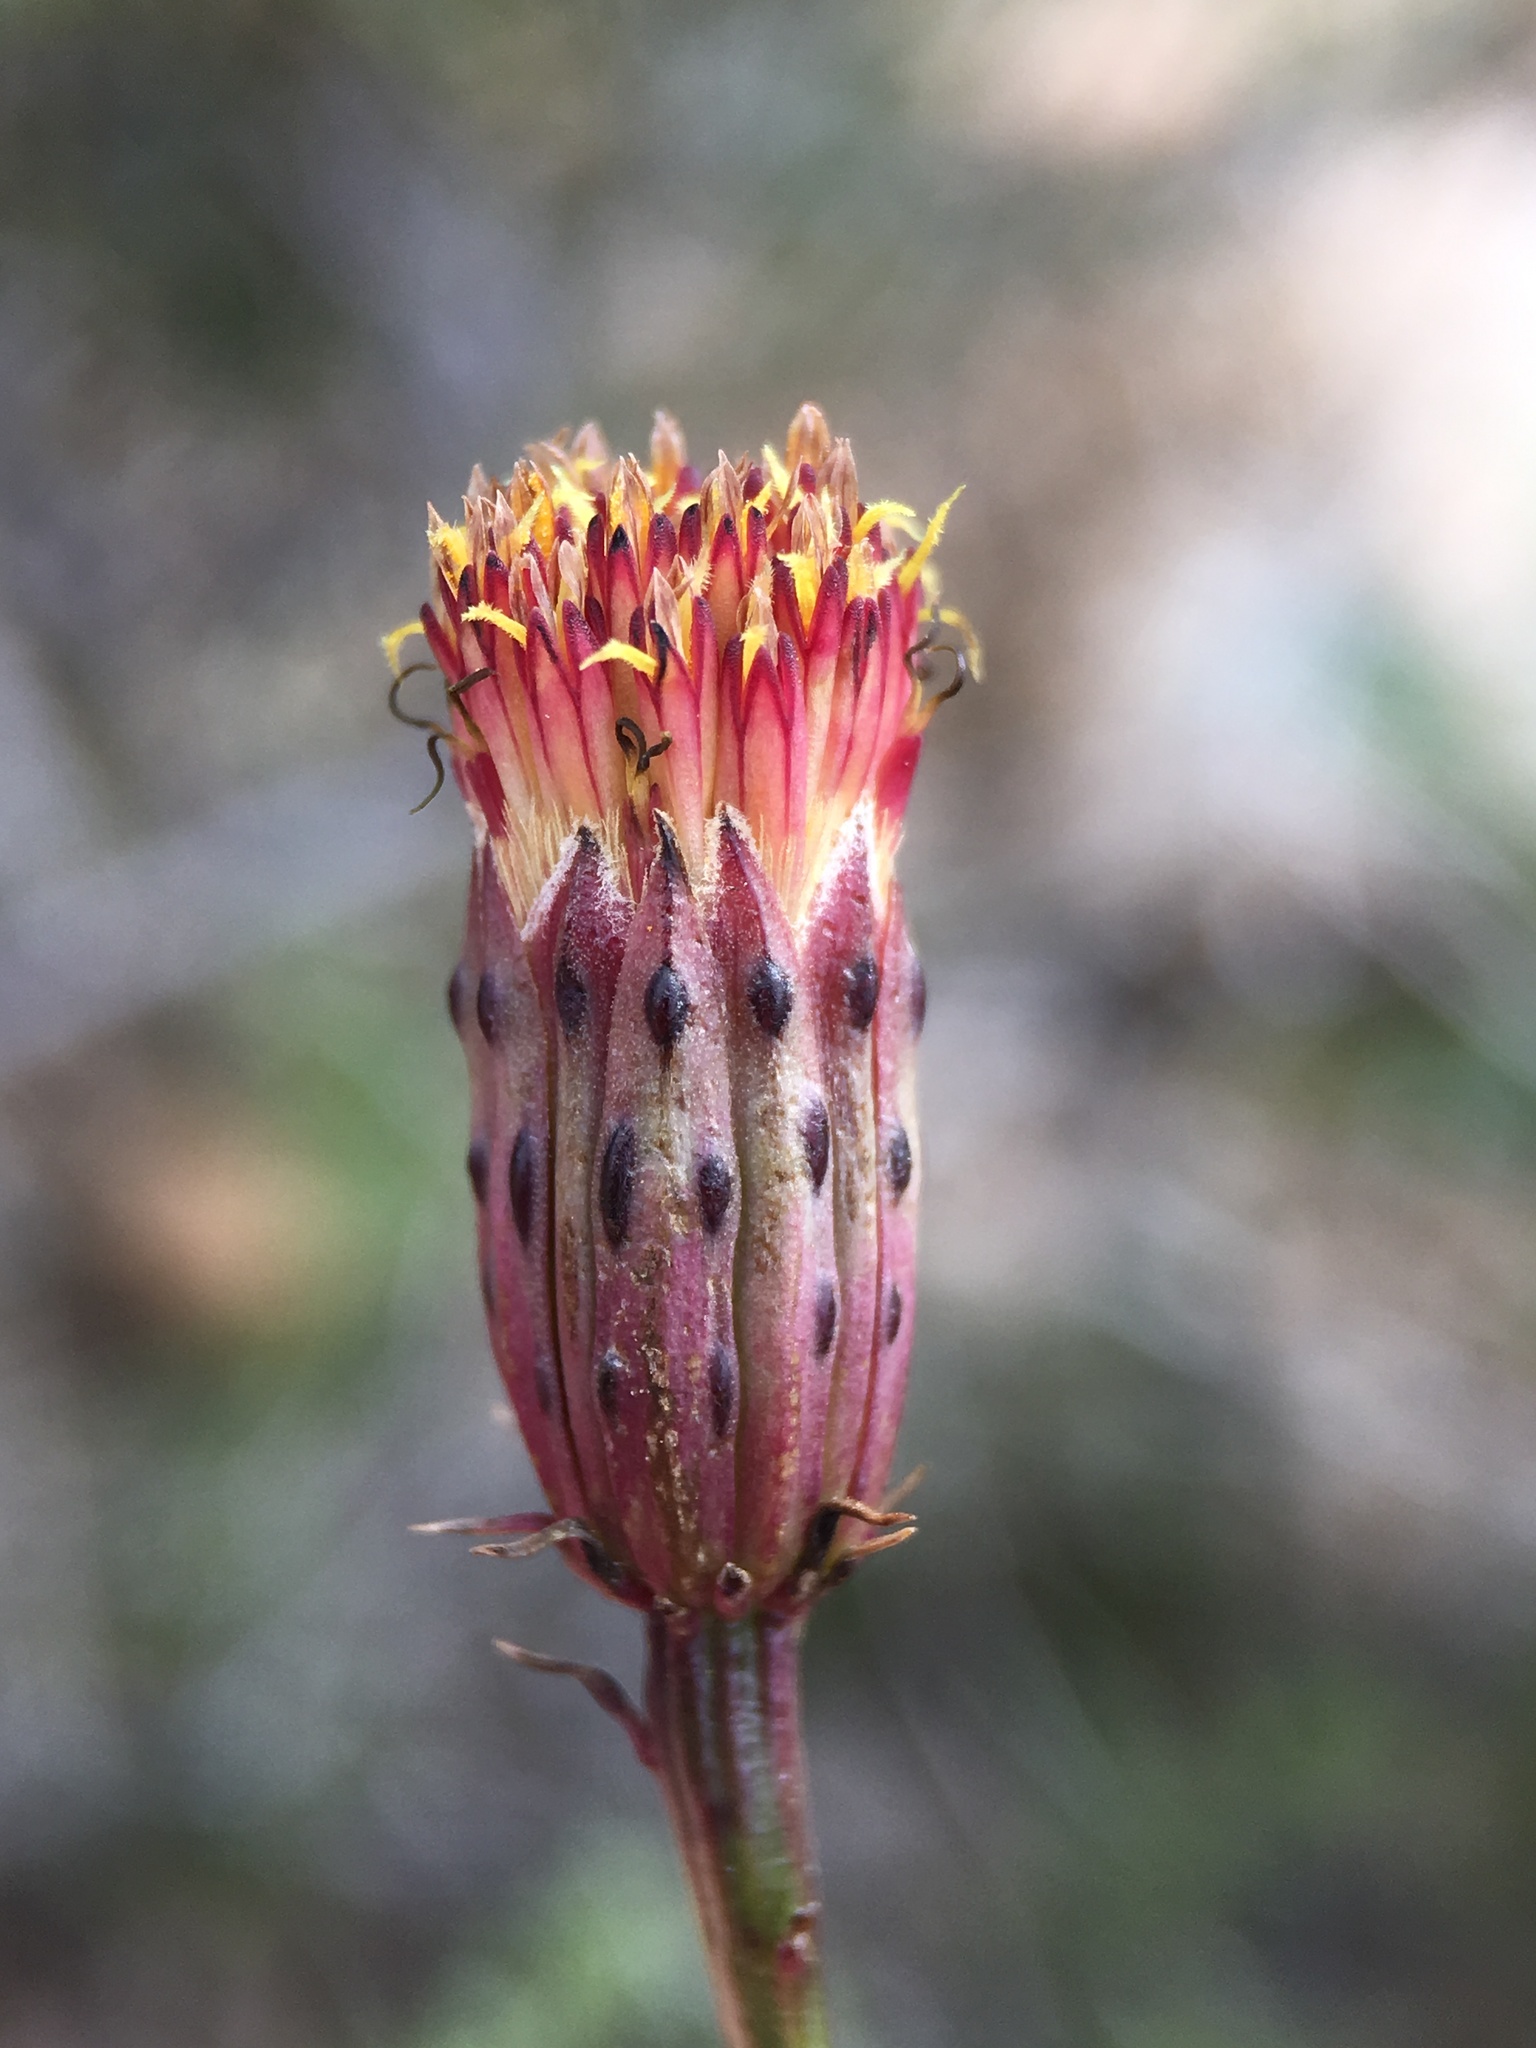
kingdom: Plantae
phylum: Tracheophyta
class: Magnoliopsida
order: Asterales
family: Asteraceae
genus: Adenophyllum
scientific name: Adenophyllum porophylloides
